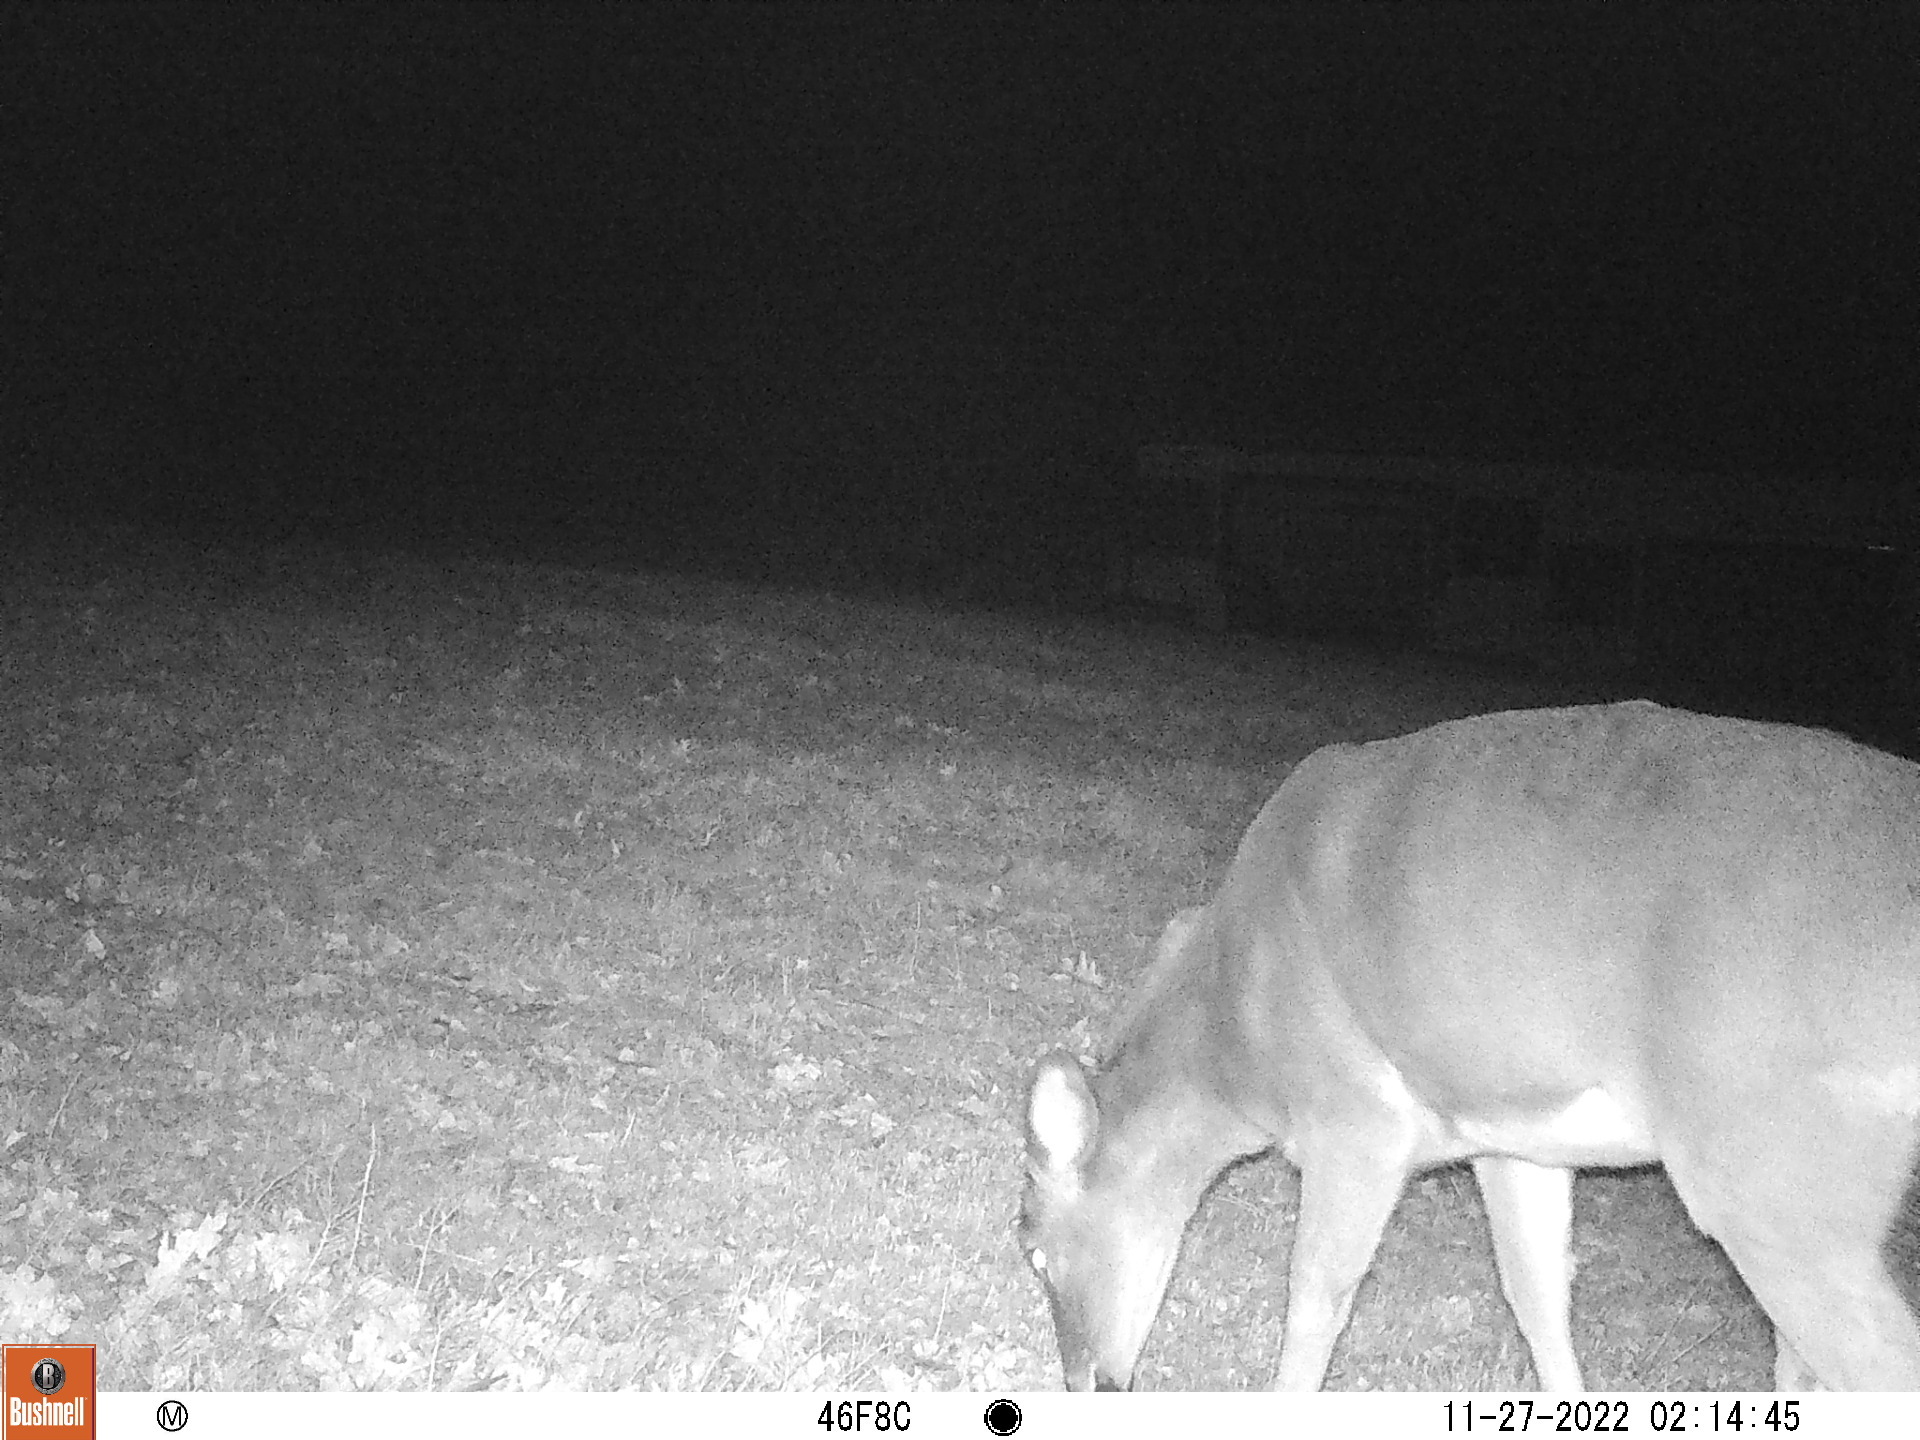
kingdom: Animalia
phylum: Chordata
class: Mammalia
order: Artiodactyla
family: Cervidae
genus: Odocoileus
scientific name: Odocoileus virginianus
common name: White-tailed deer
